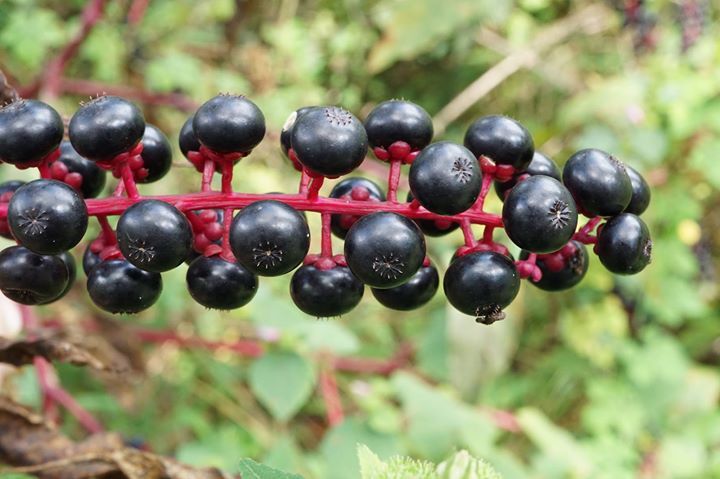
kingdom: Plantae
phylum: Tracheophyta
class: Magnoliopsida
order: Caryophyllales
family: Phytolaccaceae
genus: Phytolacca
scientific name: Phytolacca americana
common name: American pokeweed
